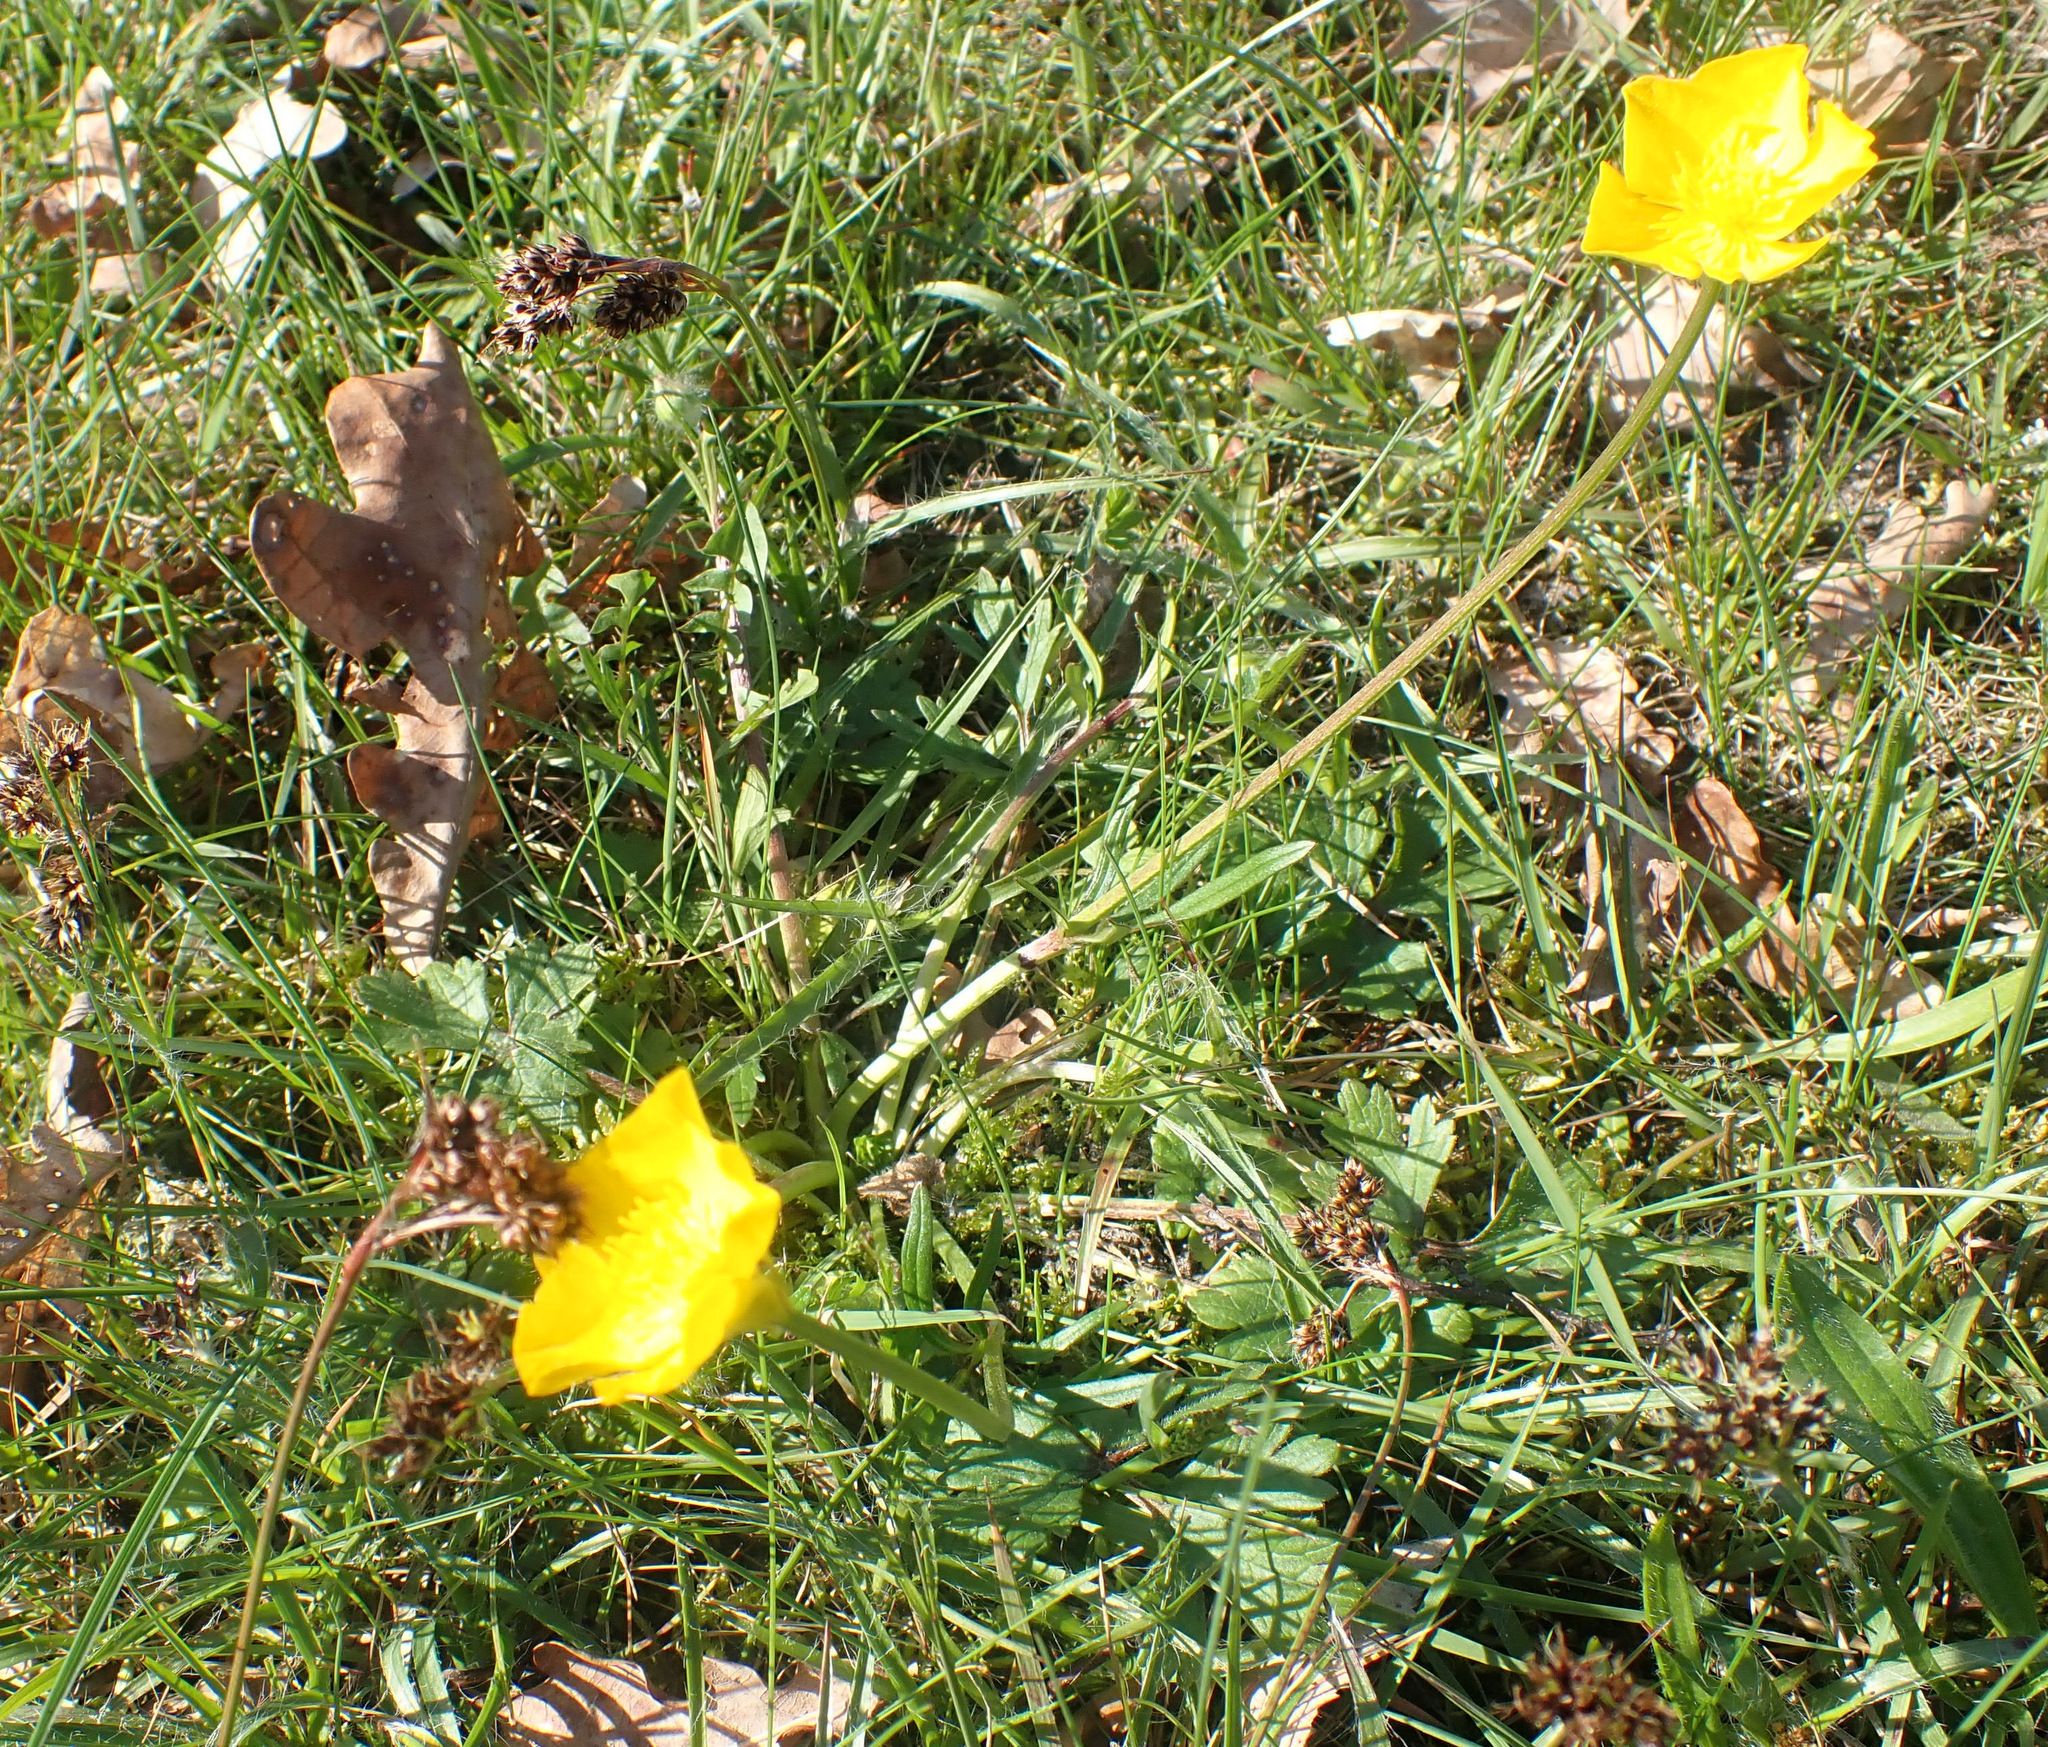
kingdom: Plantae
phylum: Tracheophyta
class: Magnoliopsida
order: Ranunculales
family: Ranunculaceae
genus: Ranunculus
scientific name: Ranunculus bulbosus
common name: Bulbous buttercup
